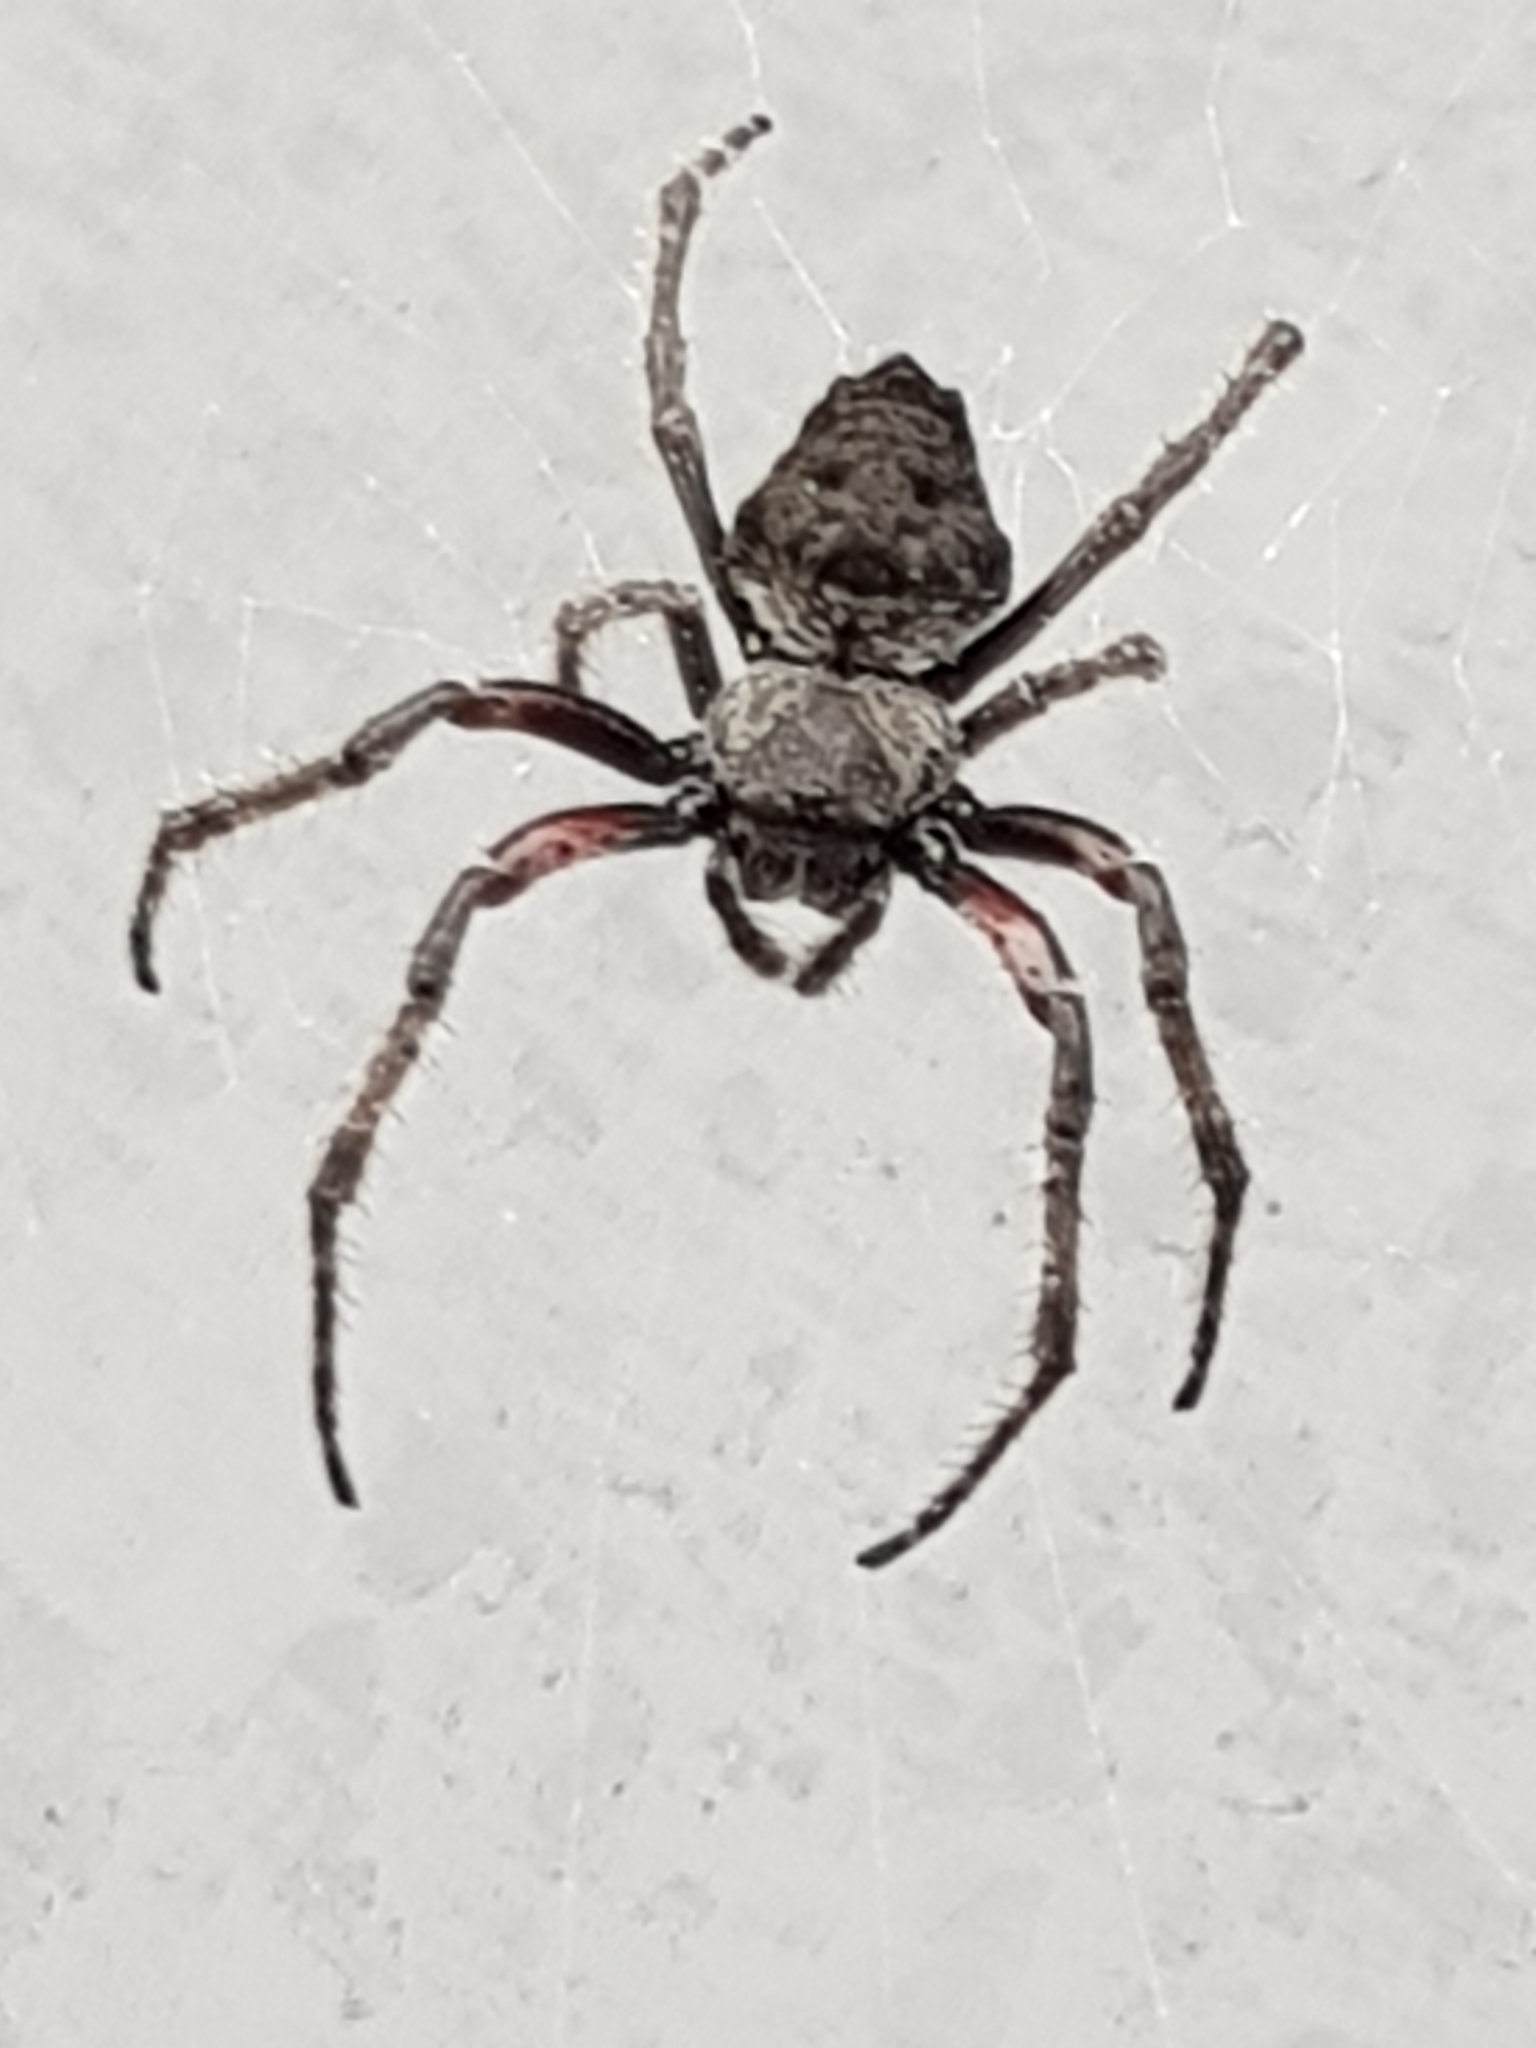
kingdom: Animalia
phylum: Arthropoda
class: Arachnida
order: Araneae
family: Araneidae
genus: Eriophora
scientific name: Eriophora pustulosa
